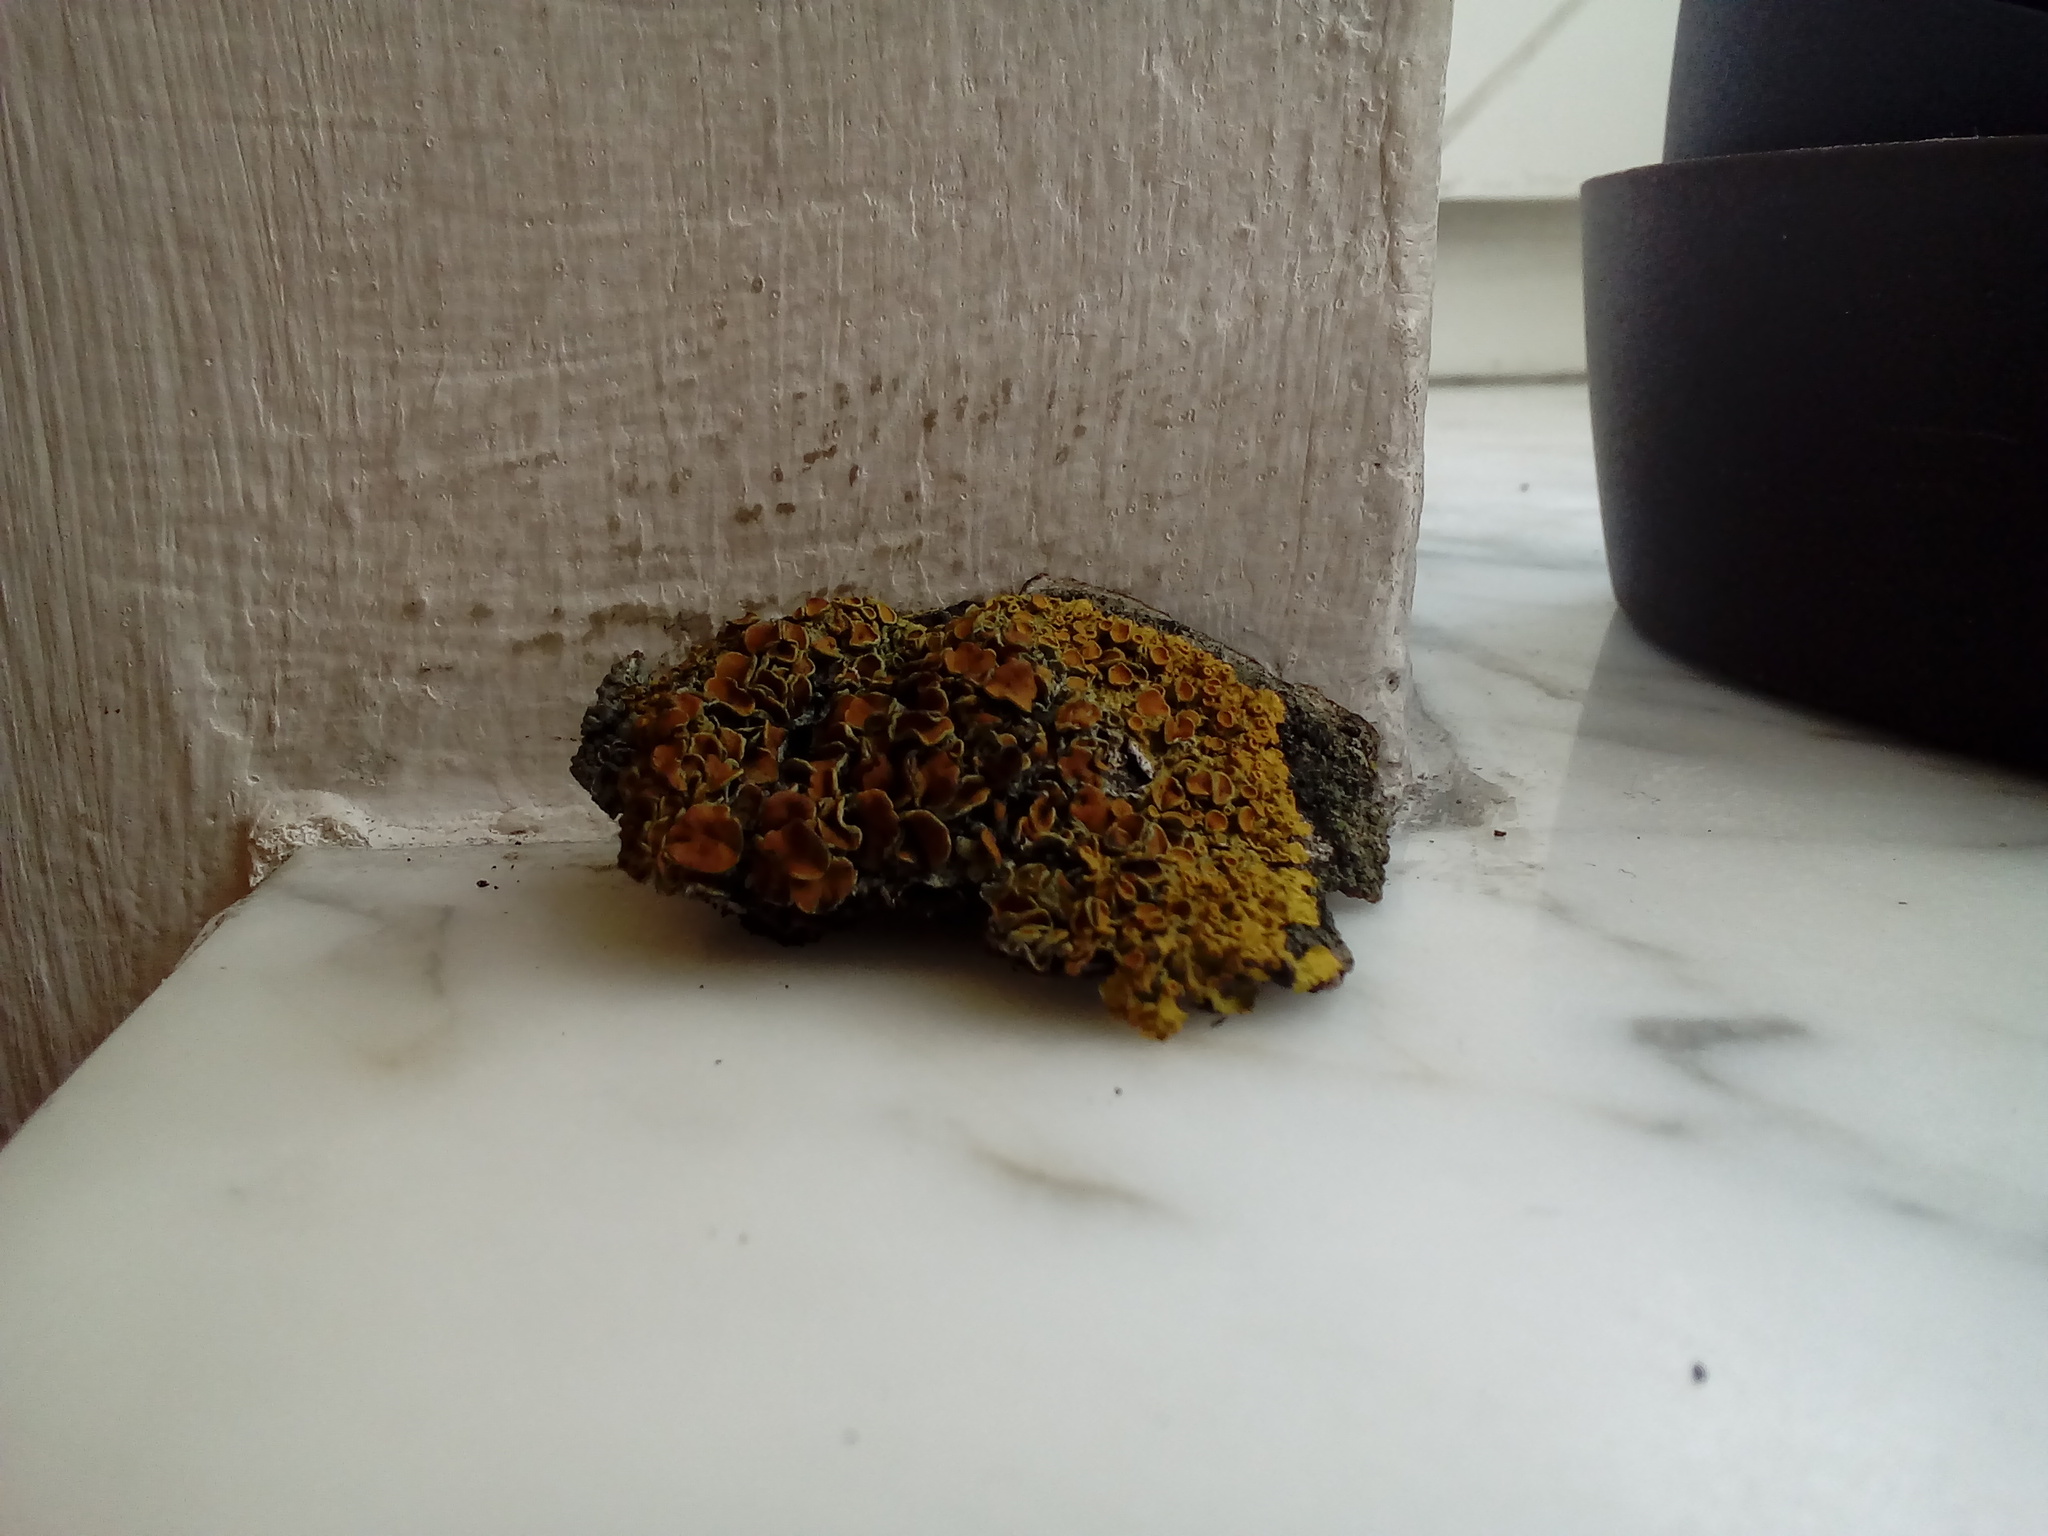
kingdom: Fungi
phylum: Ascomycota
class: Lecanoromycetes
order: Teloschistales
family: Teloschistaceae
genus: Xanthoria
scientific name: Xanthoria parietina
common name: Common orange lichen
